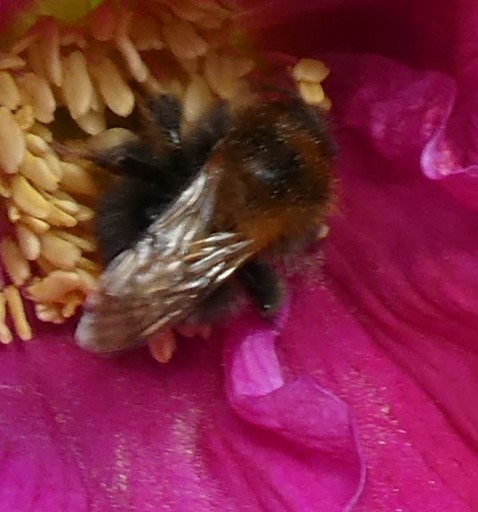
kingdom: Animalia
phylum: Arthropoda
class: Insecta
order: Hymenoptera
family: Apidae
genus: Bombus
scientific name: Bombus hypnorum
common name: New garden bumblebee
